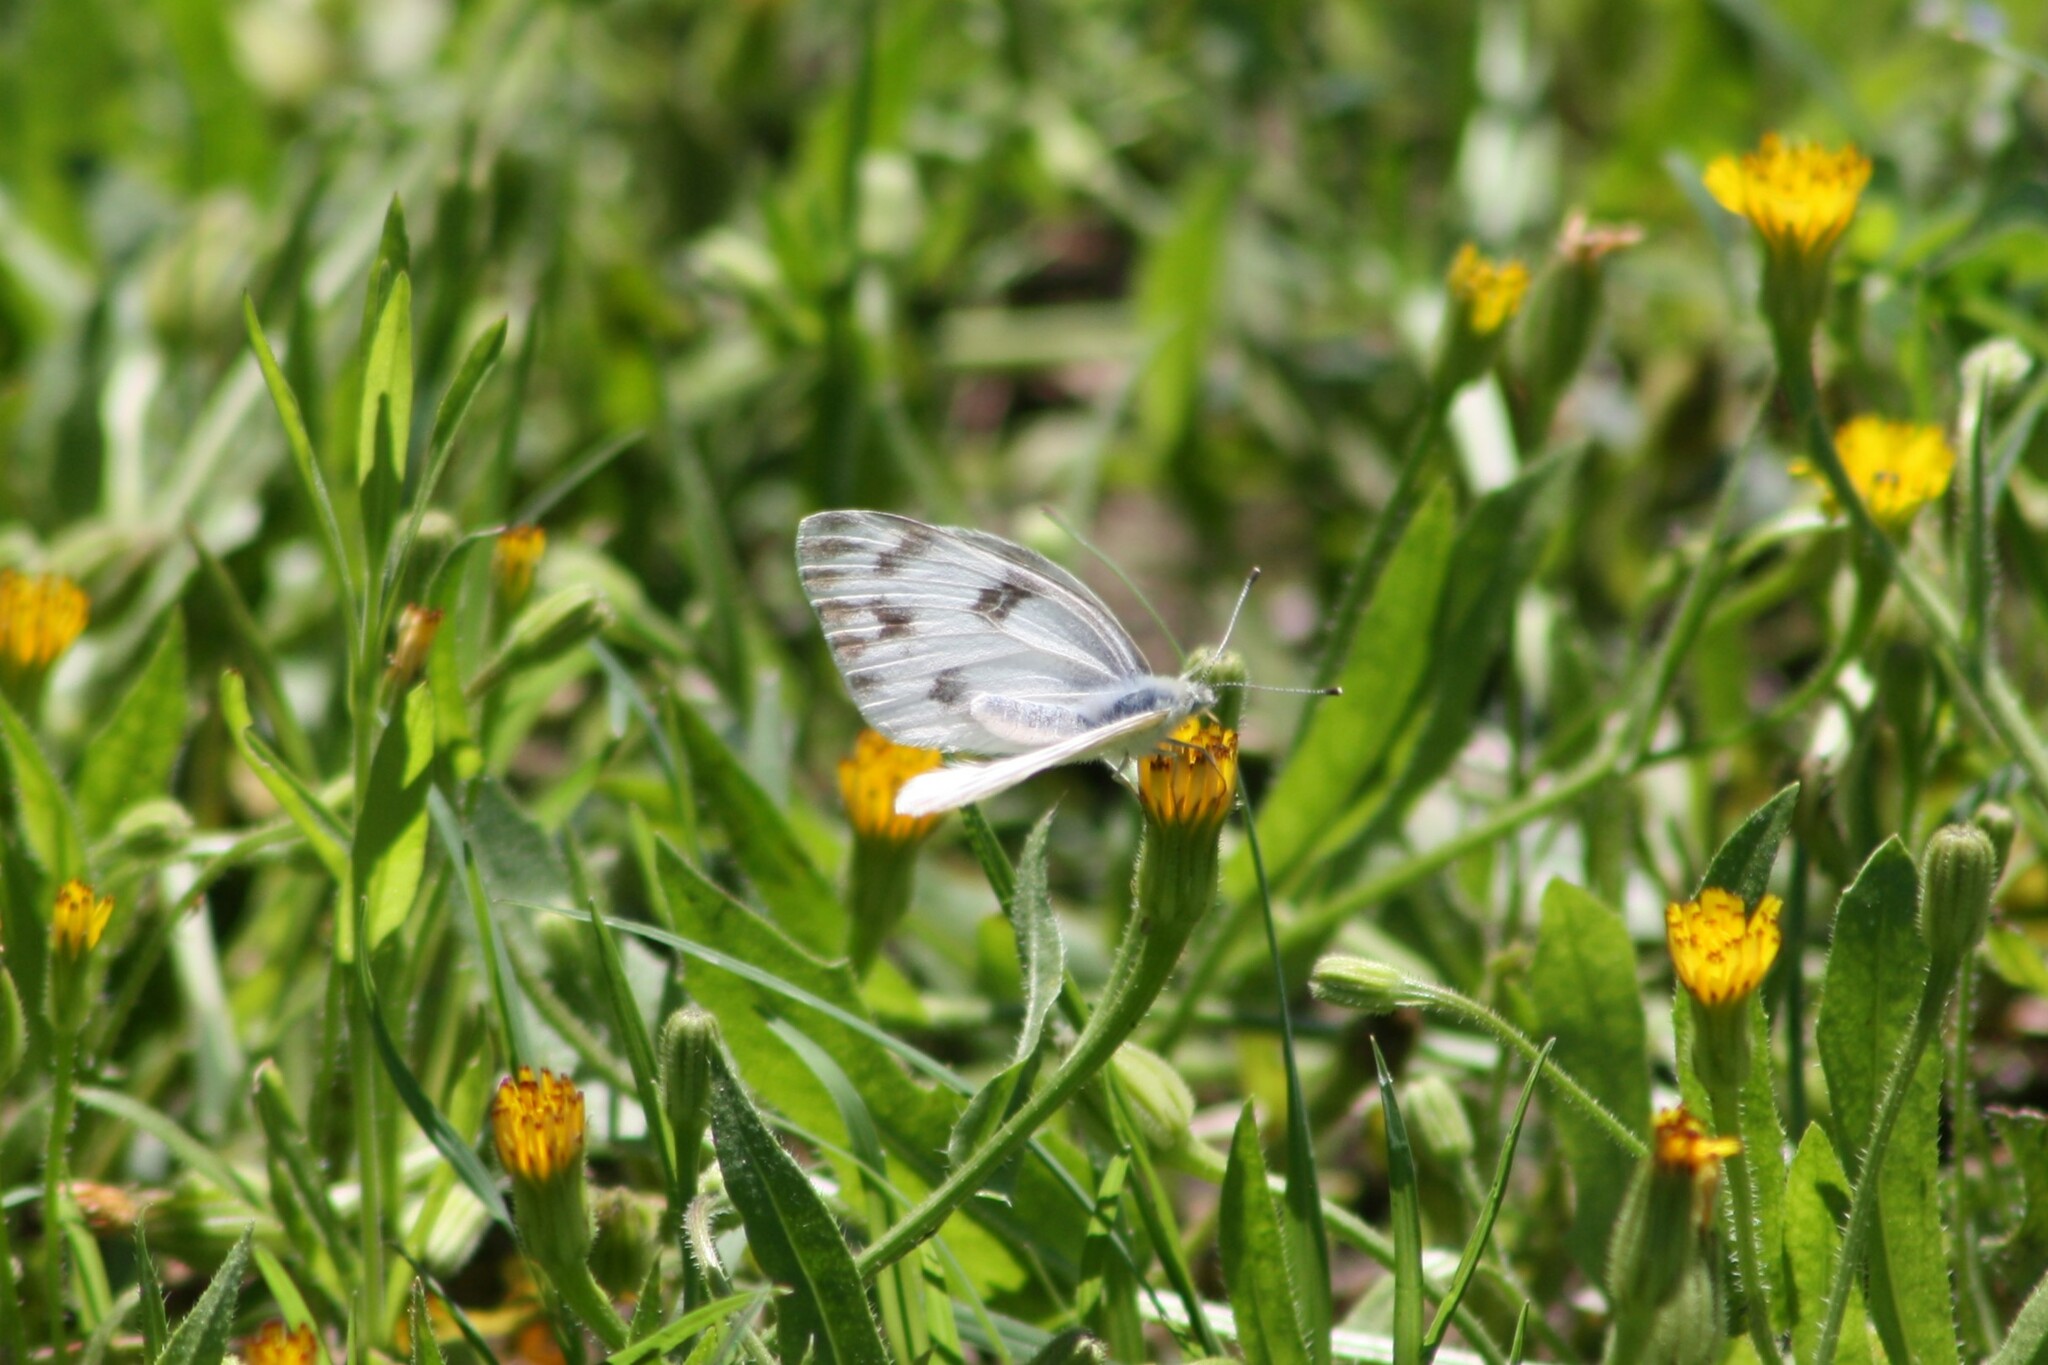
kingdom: Animalia
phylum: Arthropoda
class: Insecta
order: Lepidoptera
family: Pieridae
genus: Pontia
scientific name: Pontia protodice
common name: Checkered white
